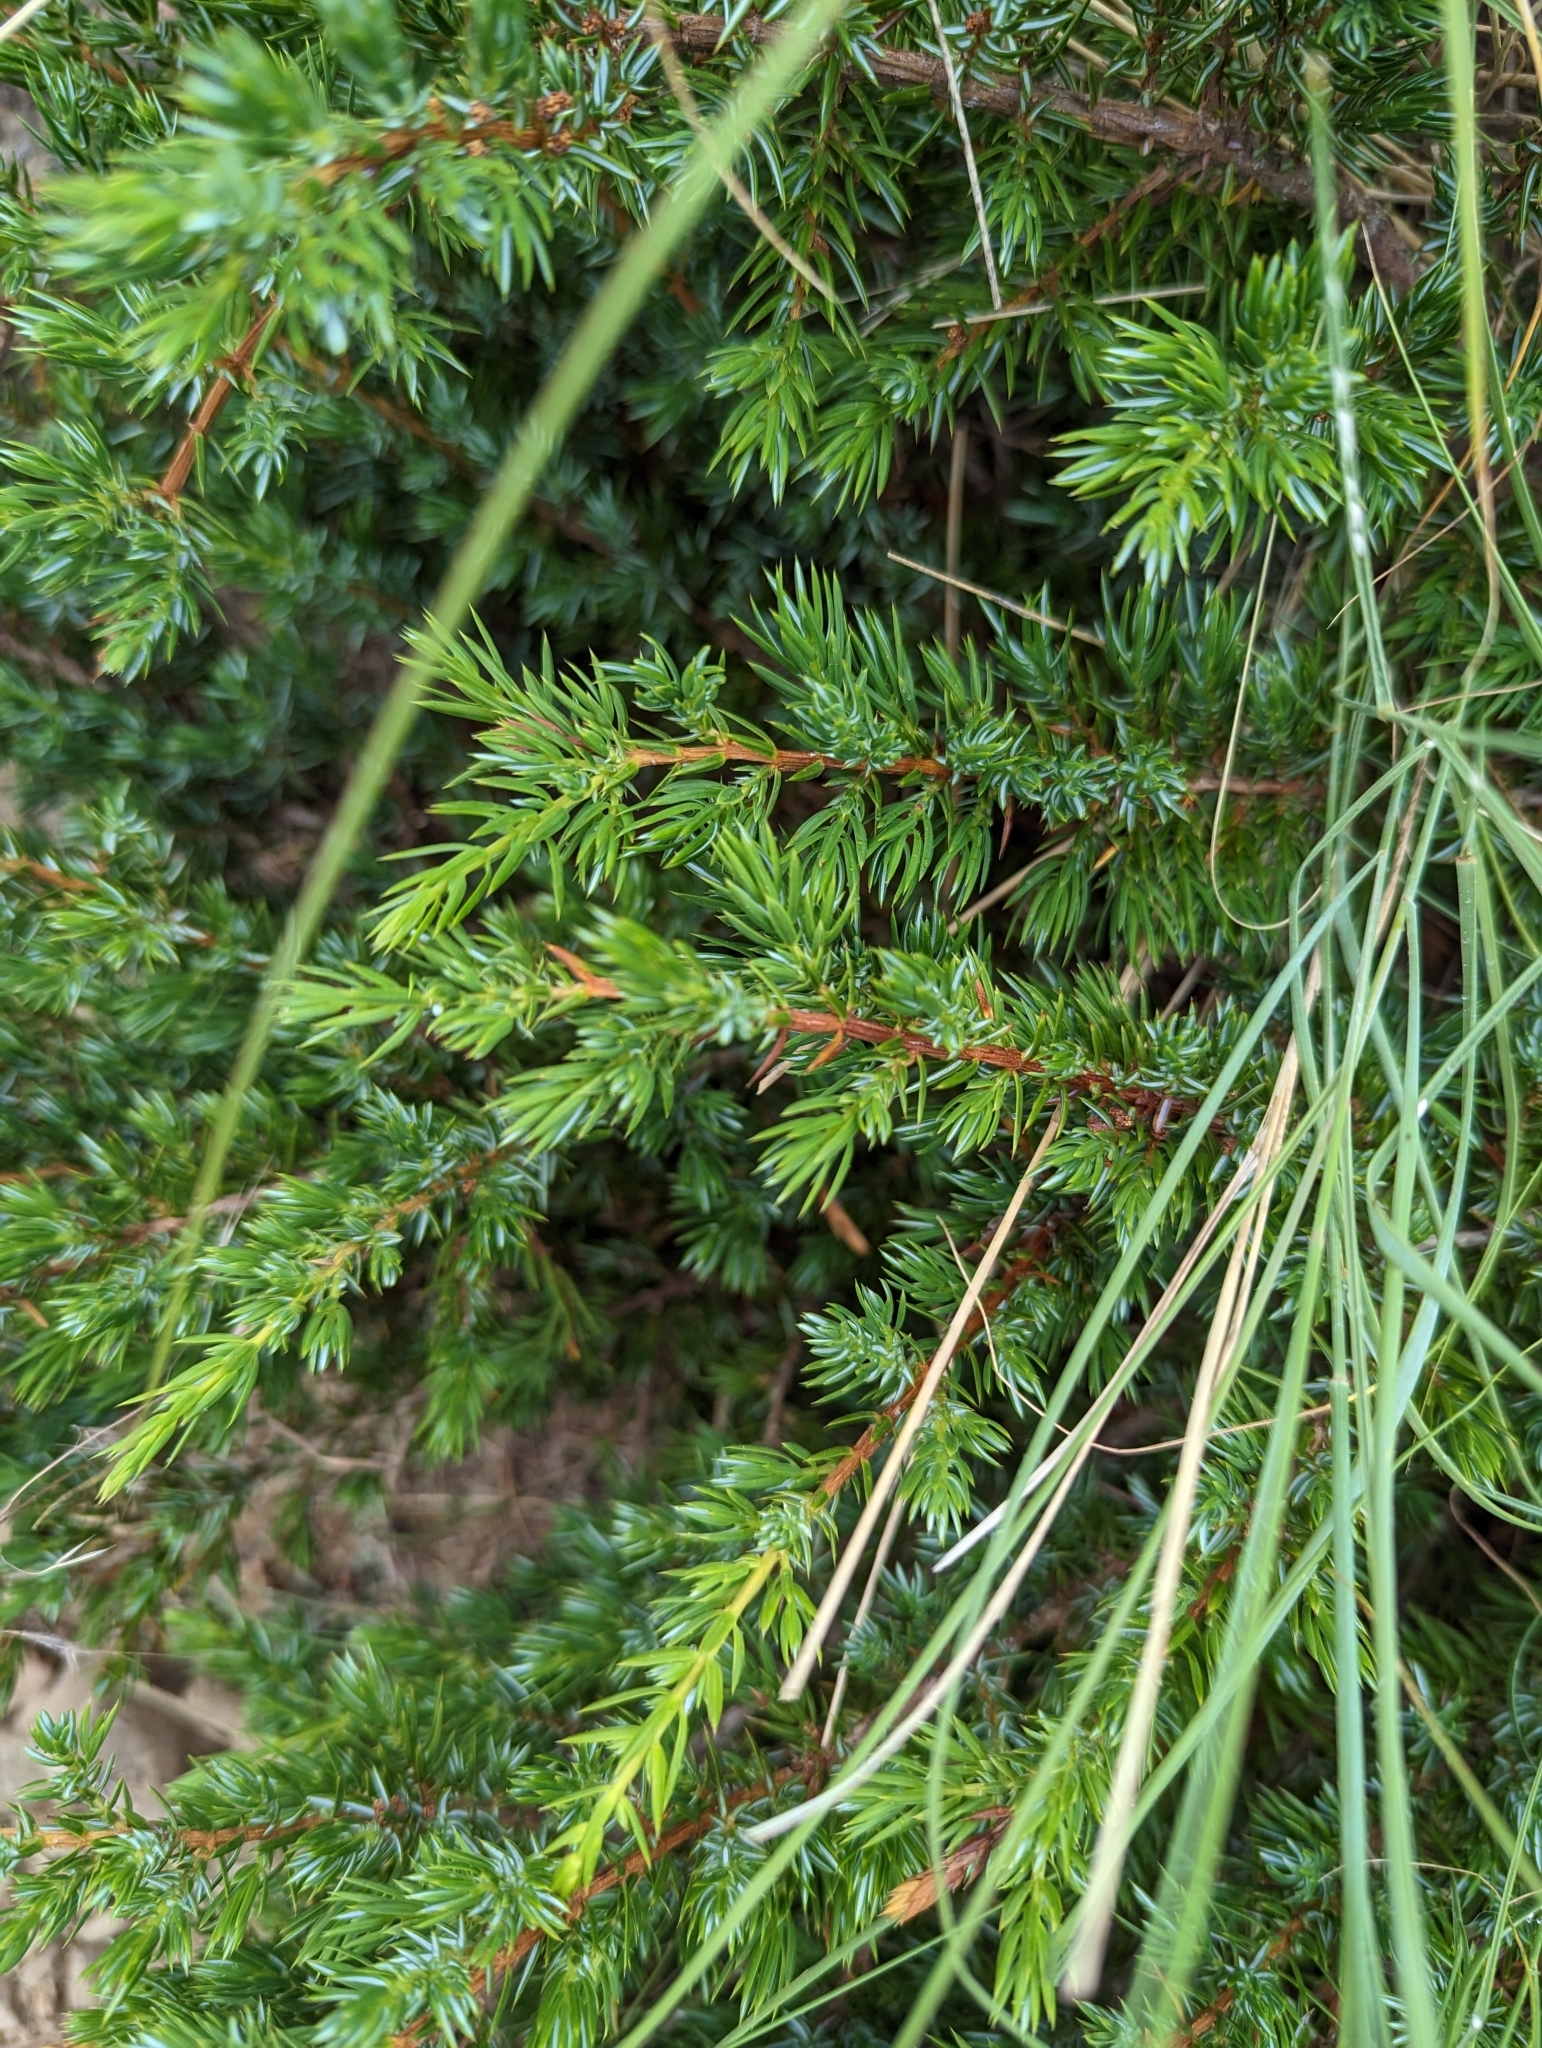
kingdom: Plantae
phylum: Tracheophyta
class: Pinopsida
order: Pinales
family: Cupressaceae
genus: Juniperus
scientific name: Juniperus communis
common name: Common juniper
